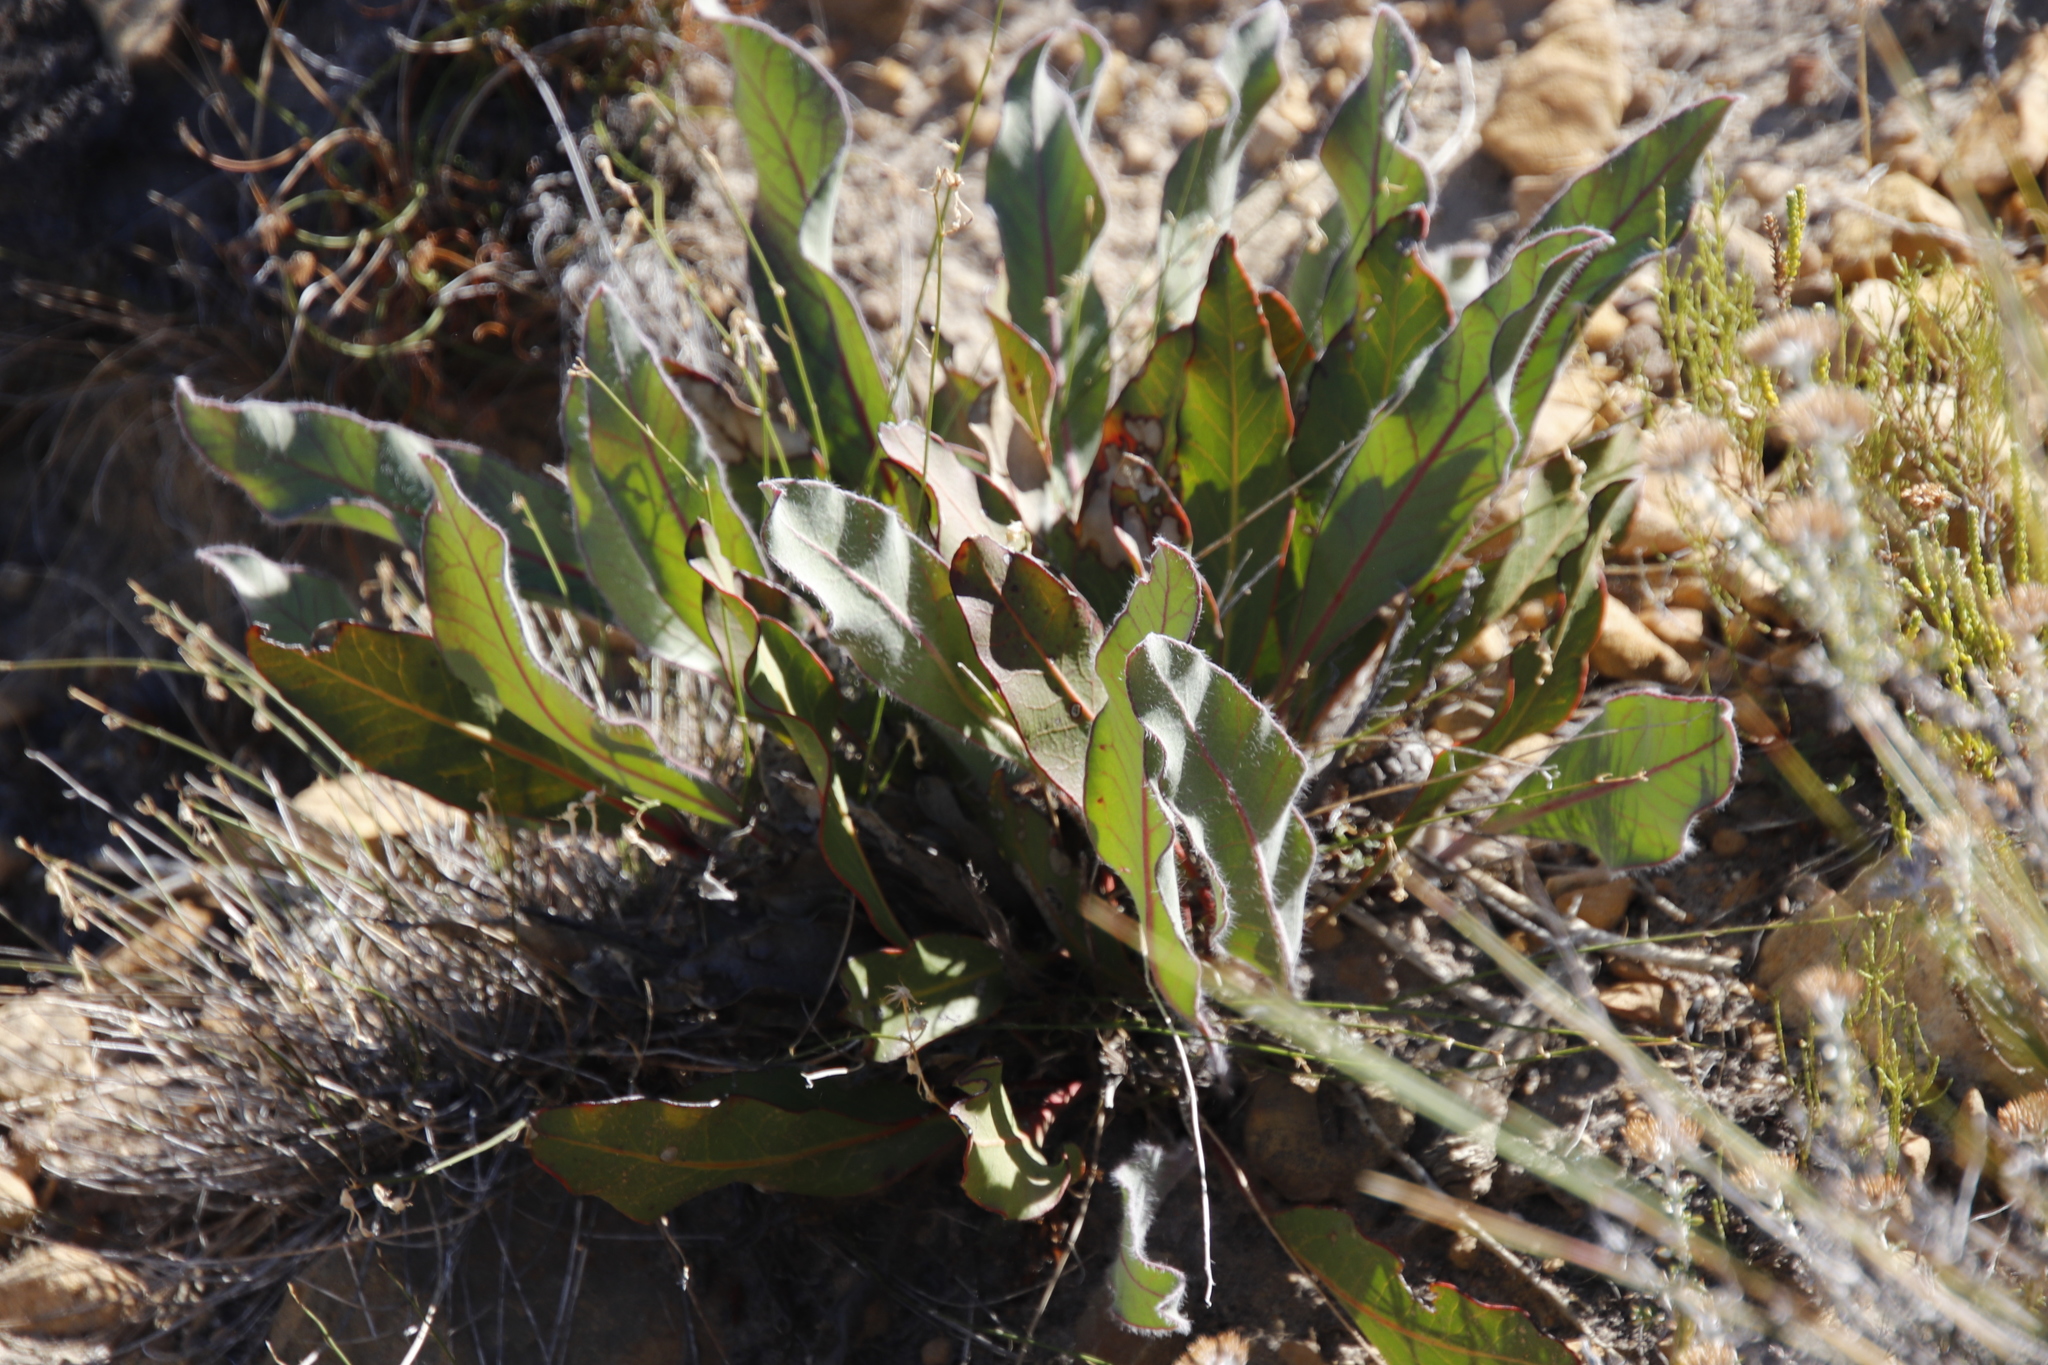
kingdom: Plantae
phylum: Tracheophyta
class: Magnoliopsida
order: Proteales
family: Proteaceae
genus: Protea
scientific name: Protea scolopendriifolia
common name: Harts-tongue-fern sugarbush
